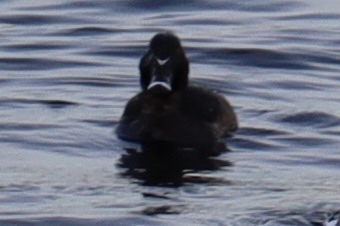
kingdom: Animalia
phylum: Chordata
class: Aves
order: Anseriformes
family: Anatidae
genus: Aythya
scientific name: Aythya collaris
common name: Ring-necked duck
